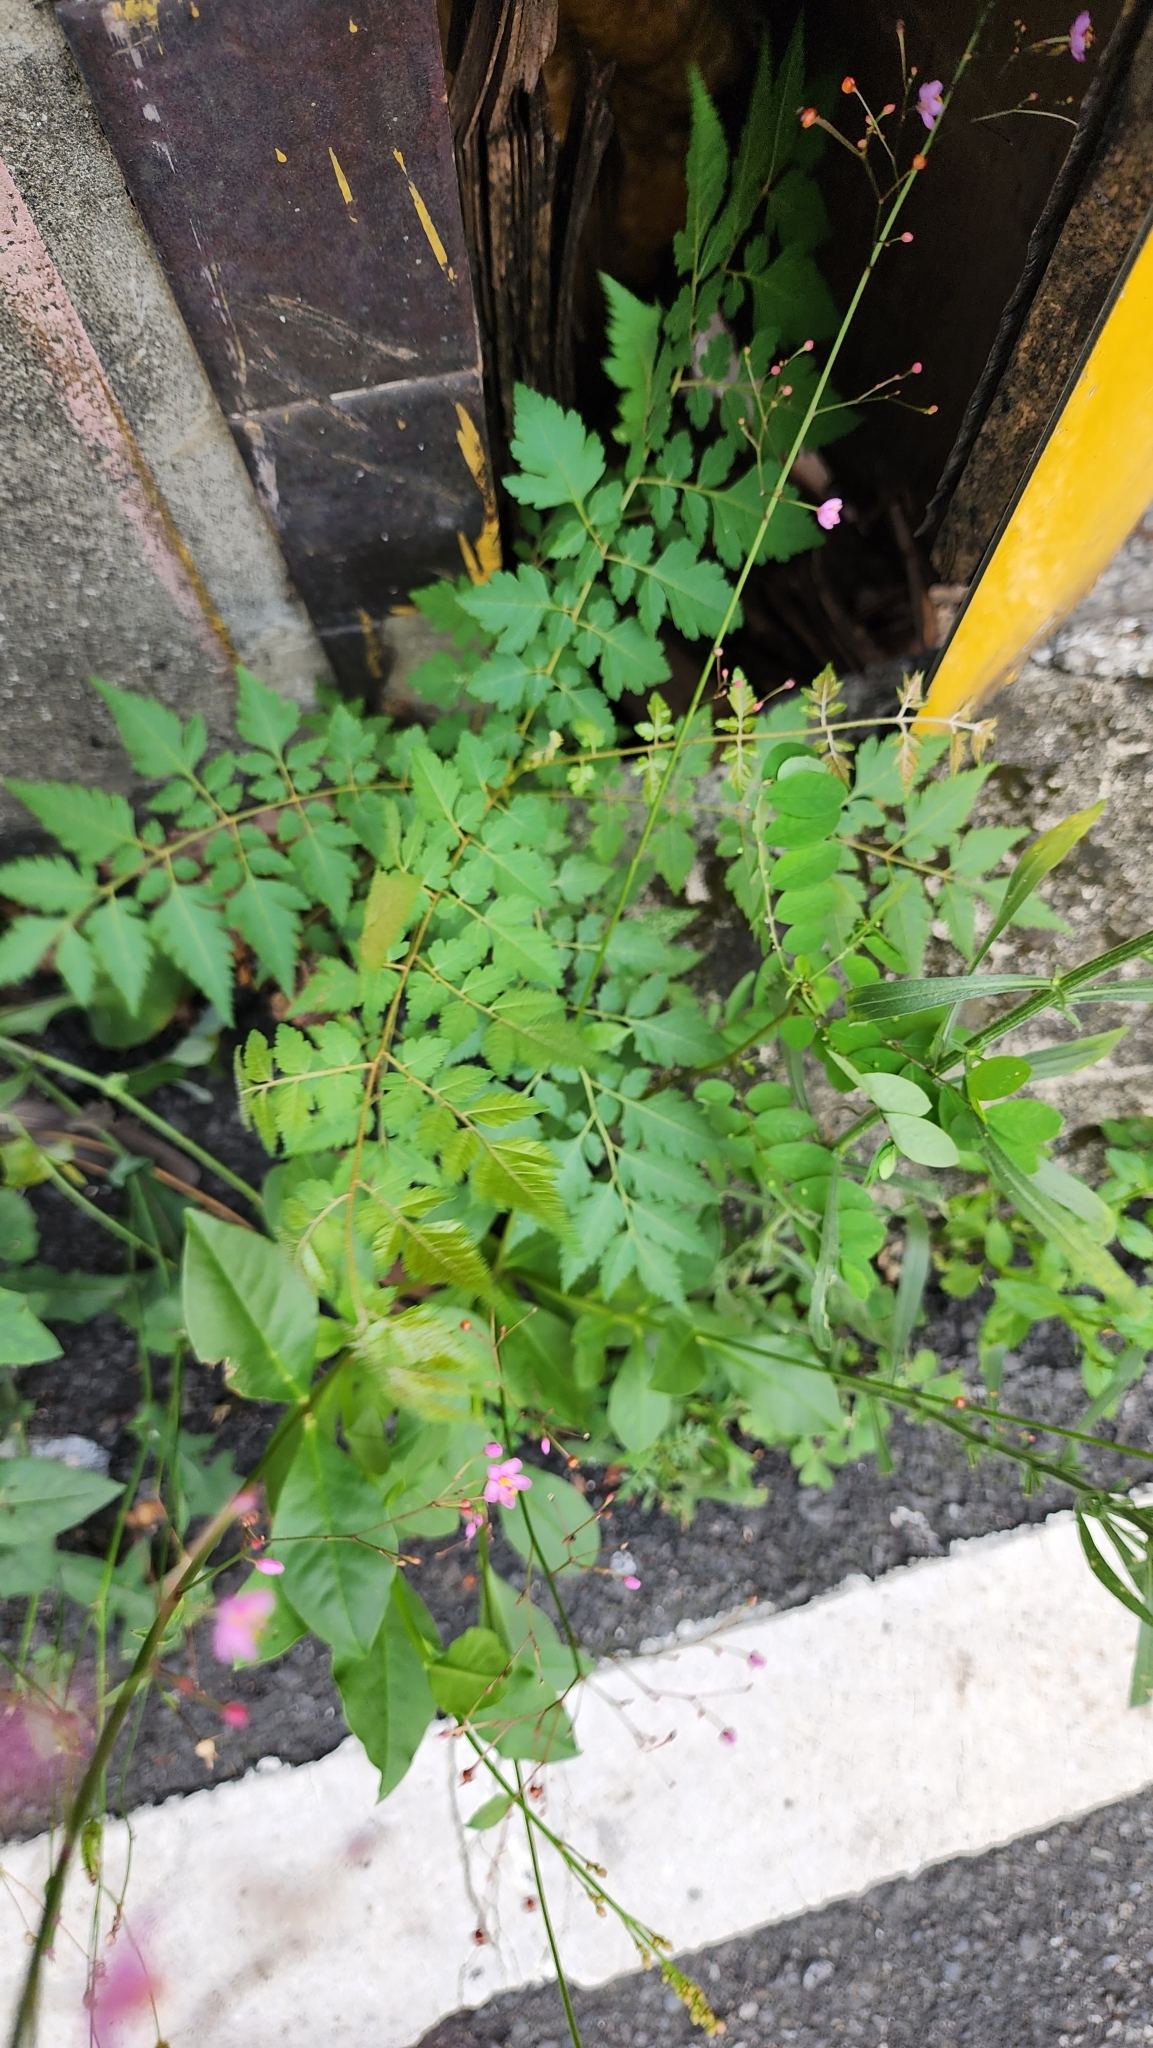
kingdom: Plantae
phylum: Tracheophyta
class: Magnoliopsida
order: Sapindales
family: Sapindaceae
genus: Koelreuteria
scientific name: Koelreuteria elegans
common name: Chinese flame tree
